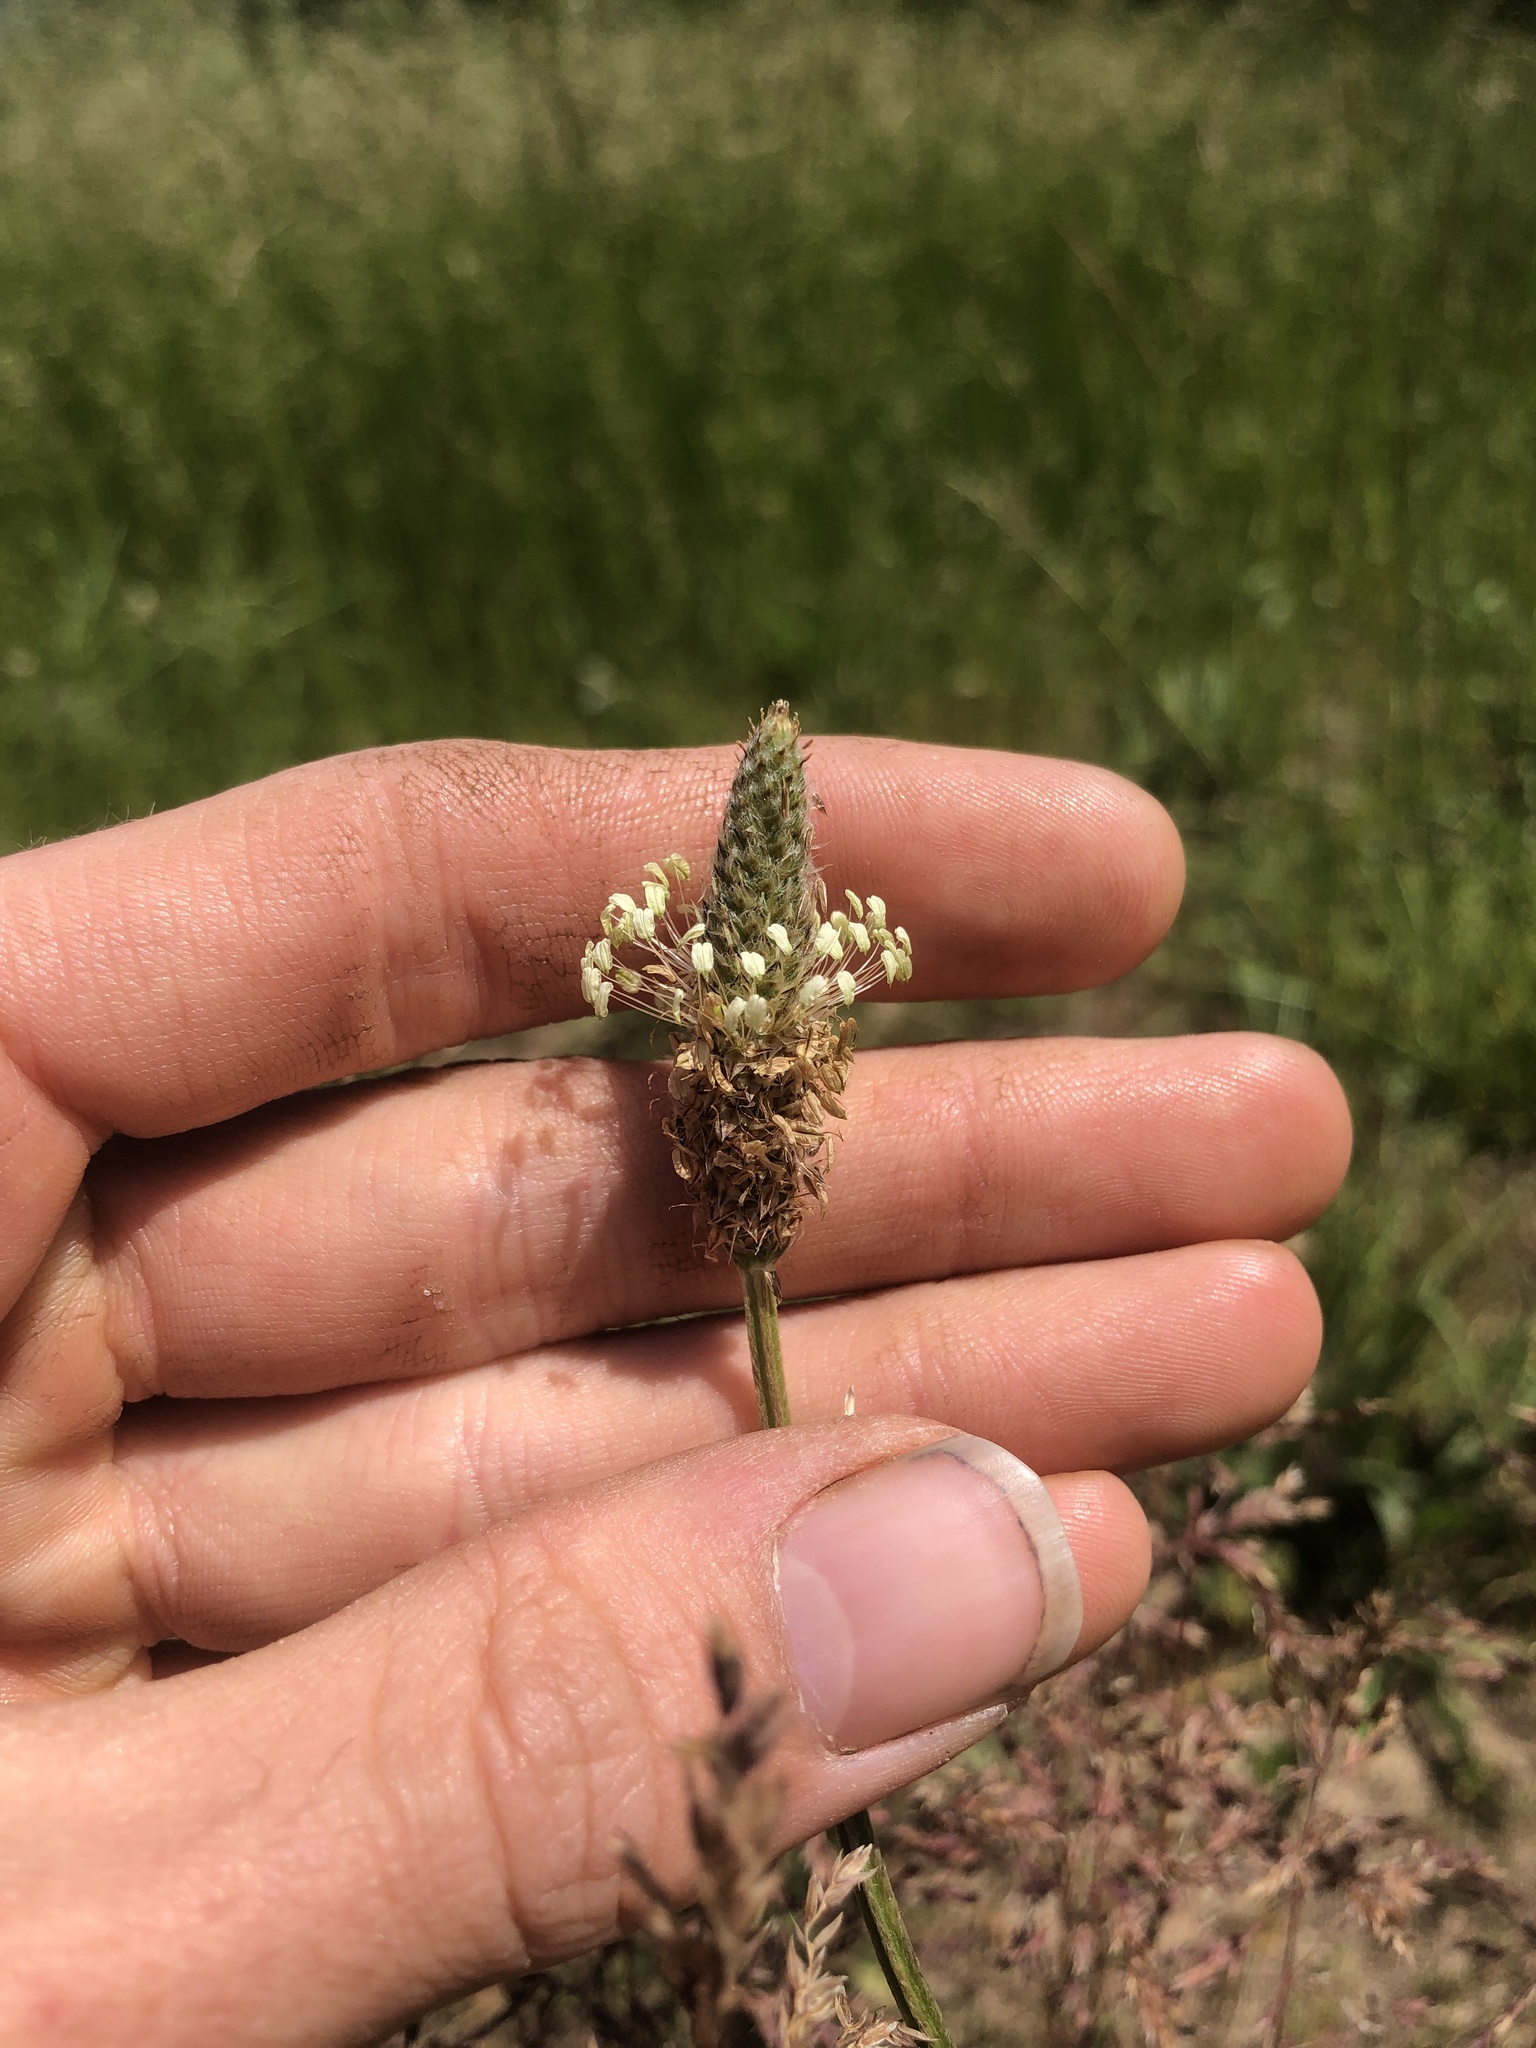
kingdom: Plantae
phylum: Tracheophyta
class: Magnoliopsida
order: Lamiales
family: Plantaginaceae
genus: Plantago
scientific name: Plantago lanceolata
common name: Ribwort plantain
